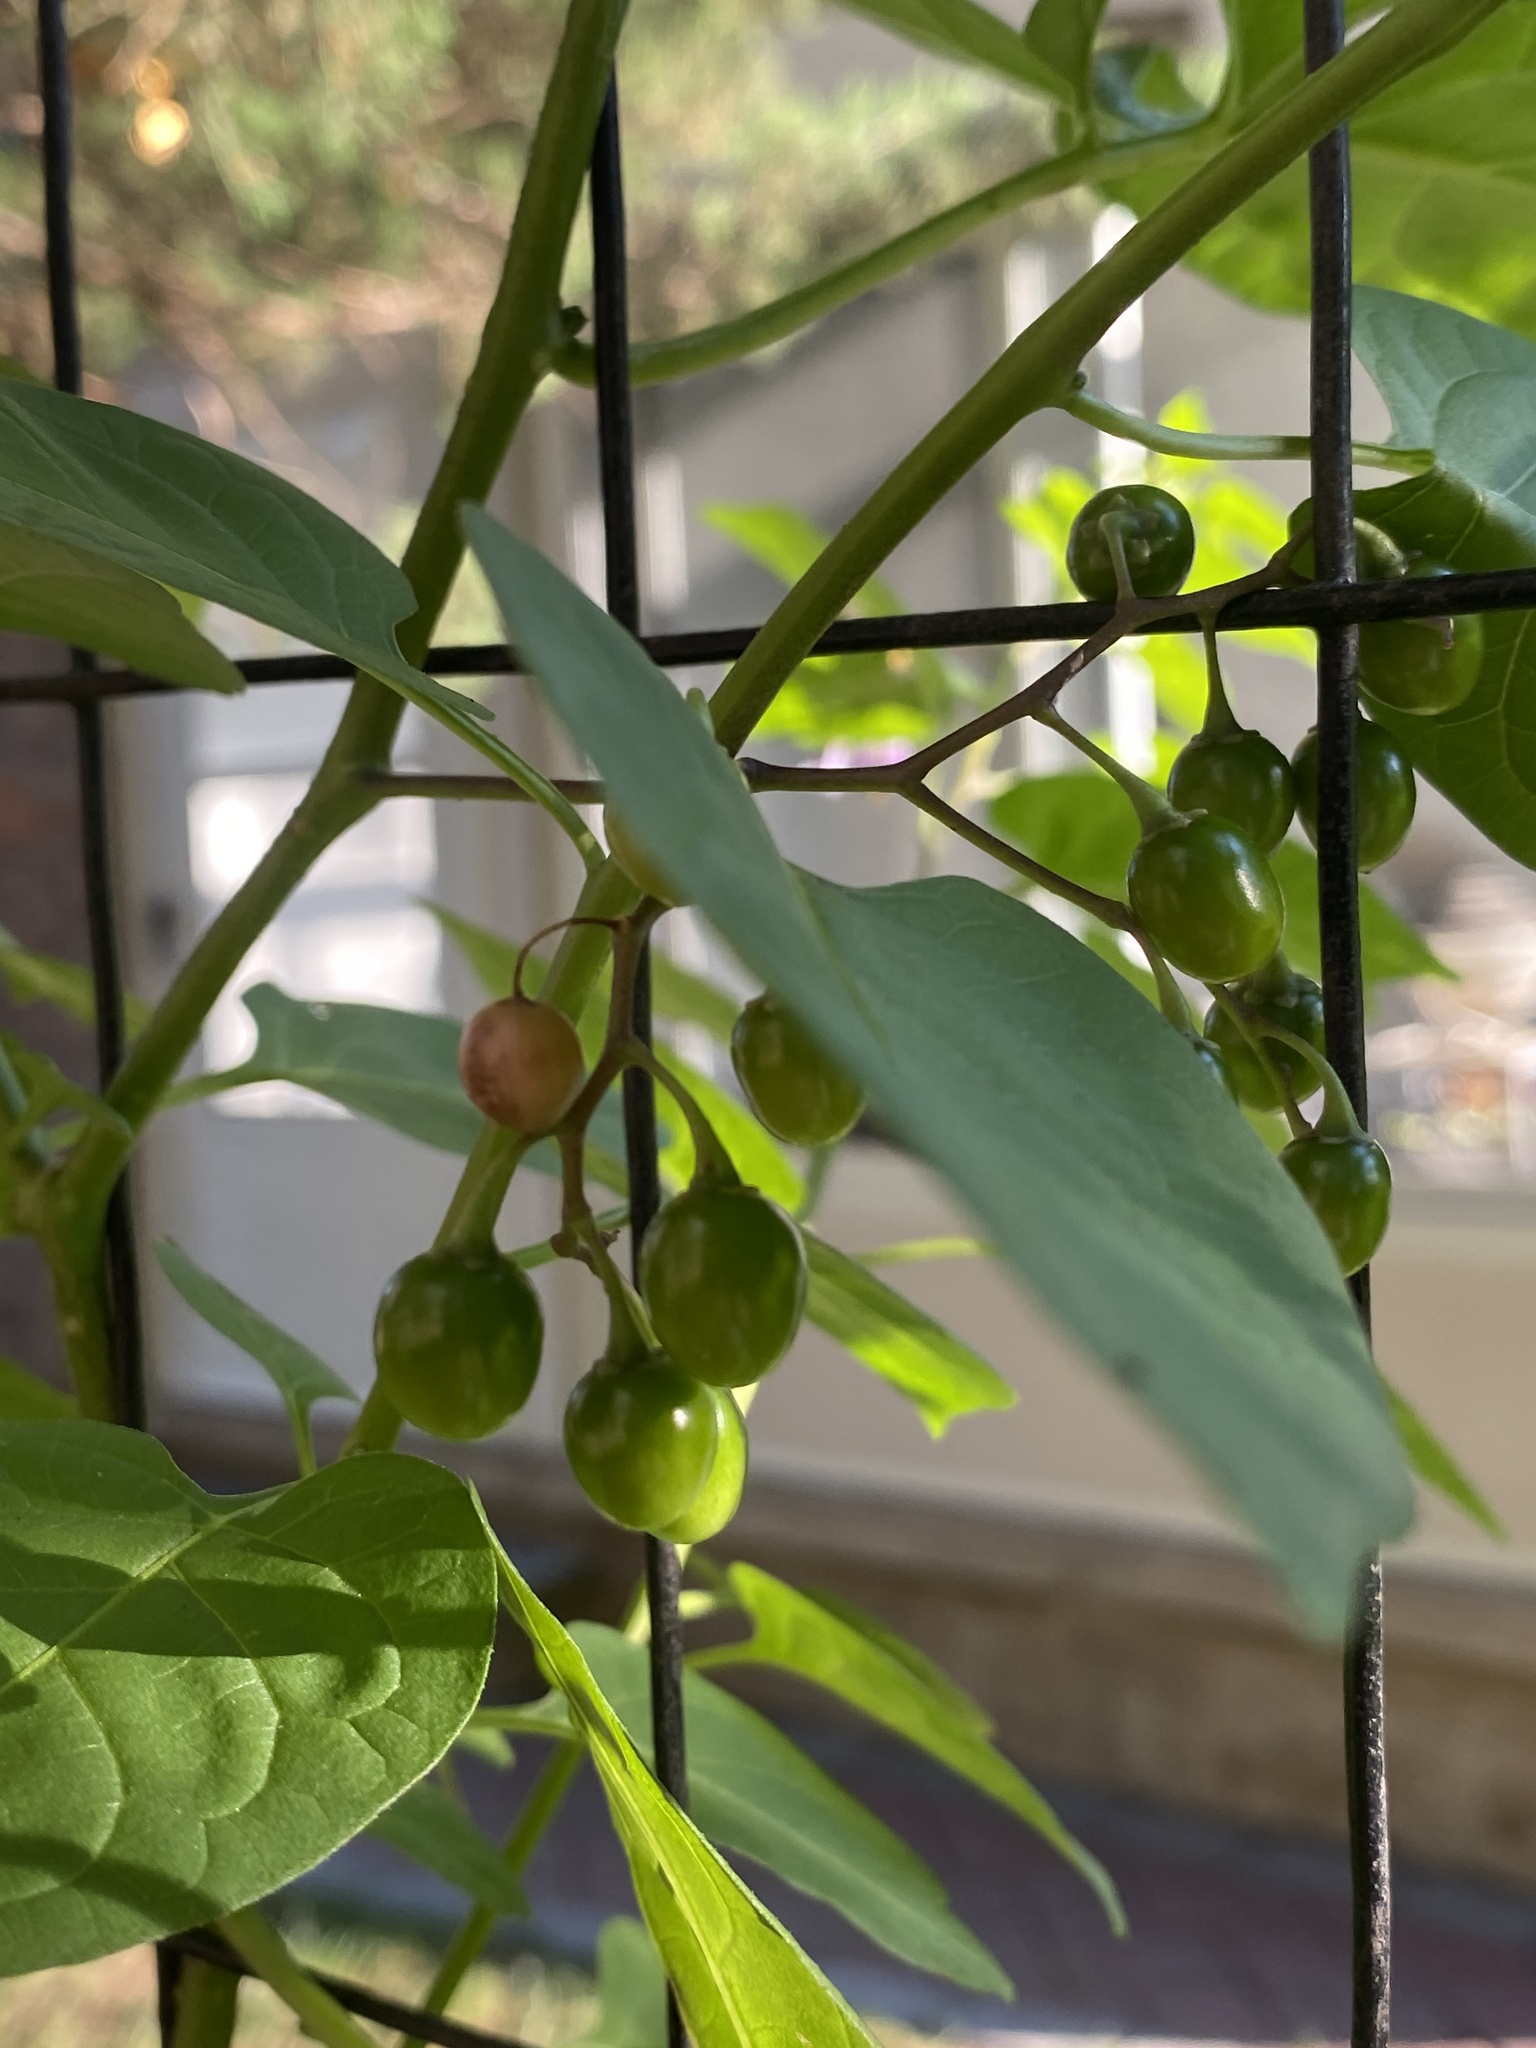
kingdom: Plantae
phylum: Tracheophyta
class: Magnoliopsida
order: Solanales
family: Solanaceae
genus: Solanum
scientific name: Solanum dulcamara
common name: Climbing nightshade
